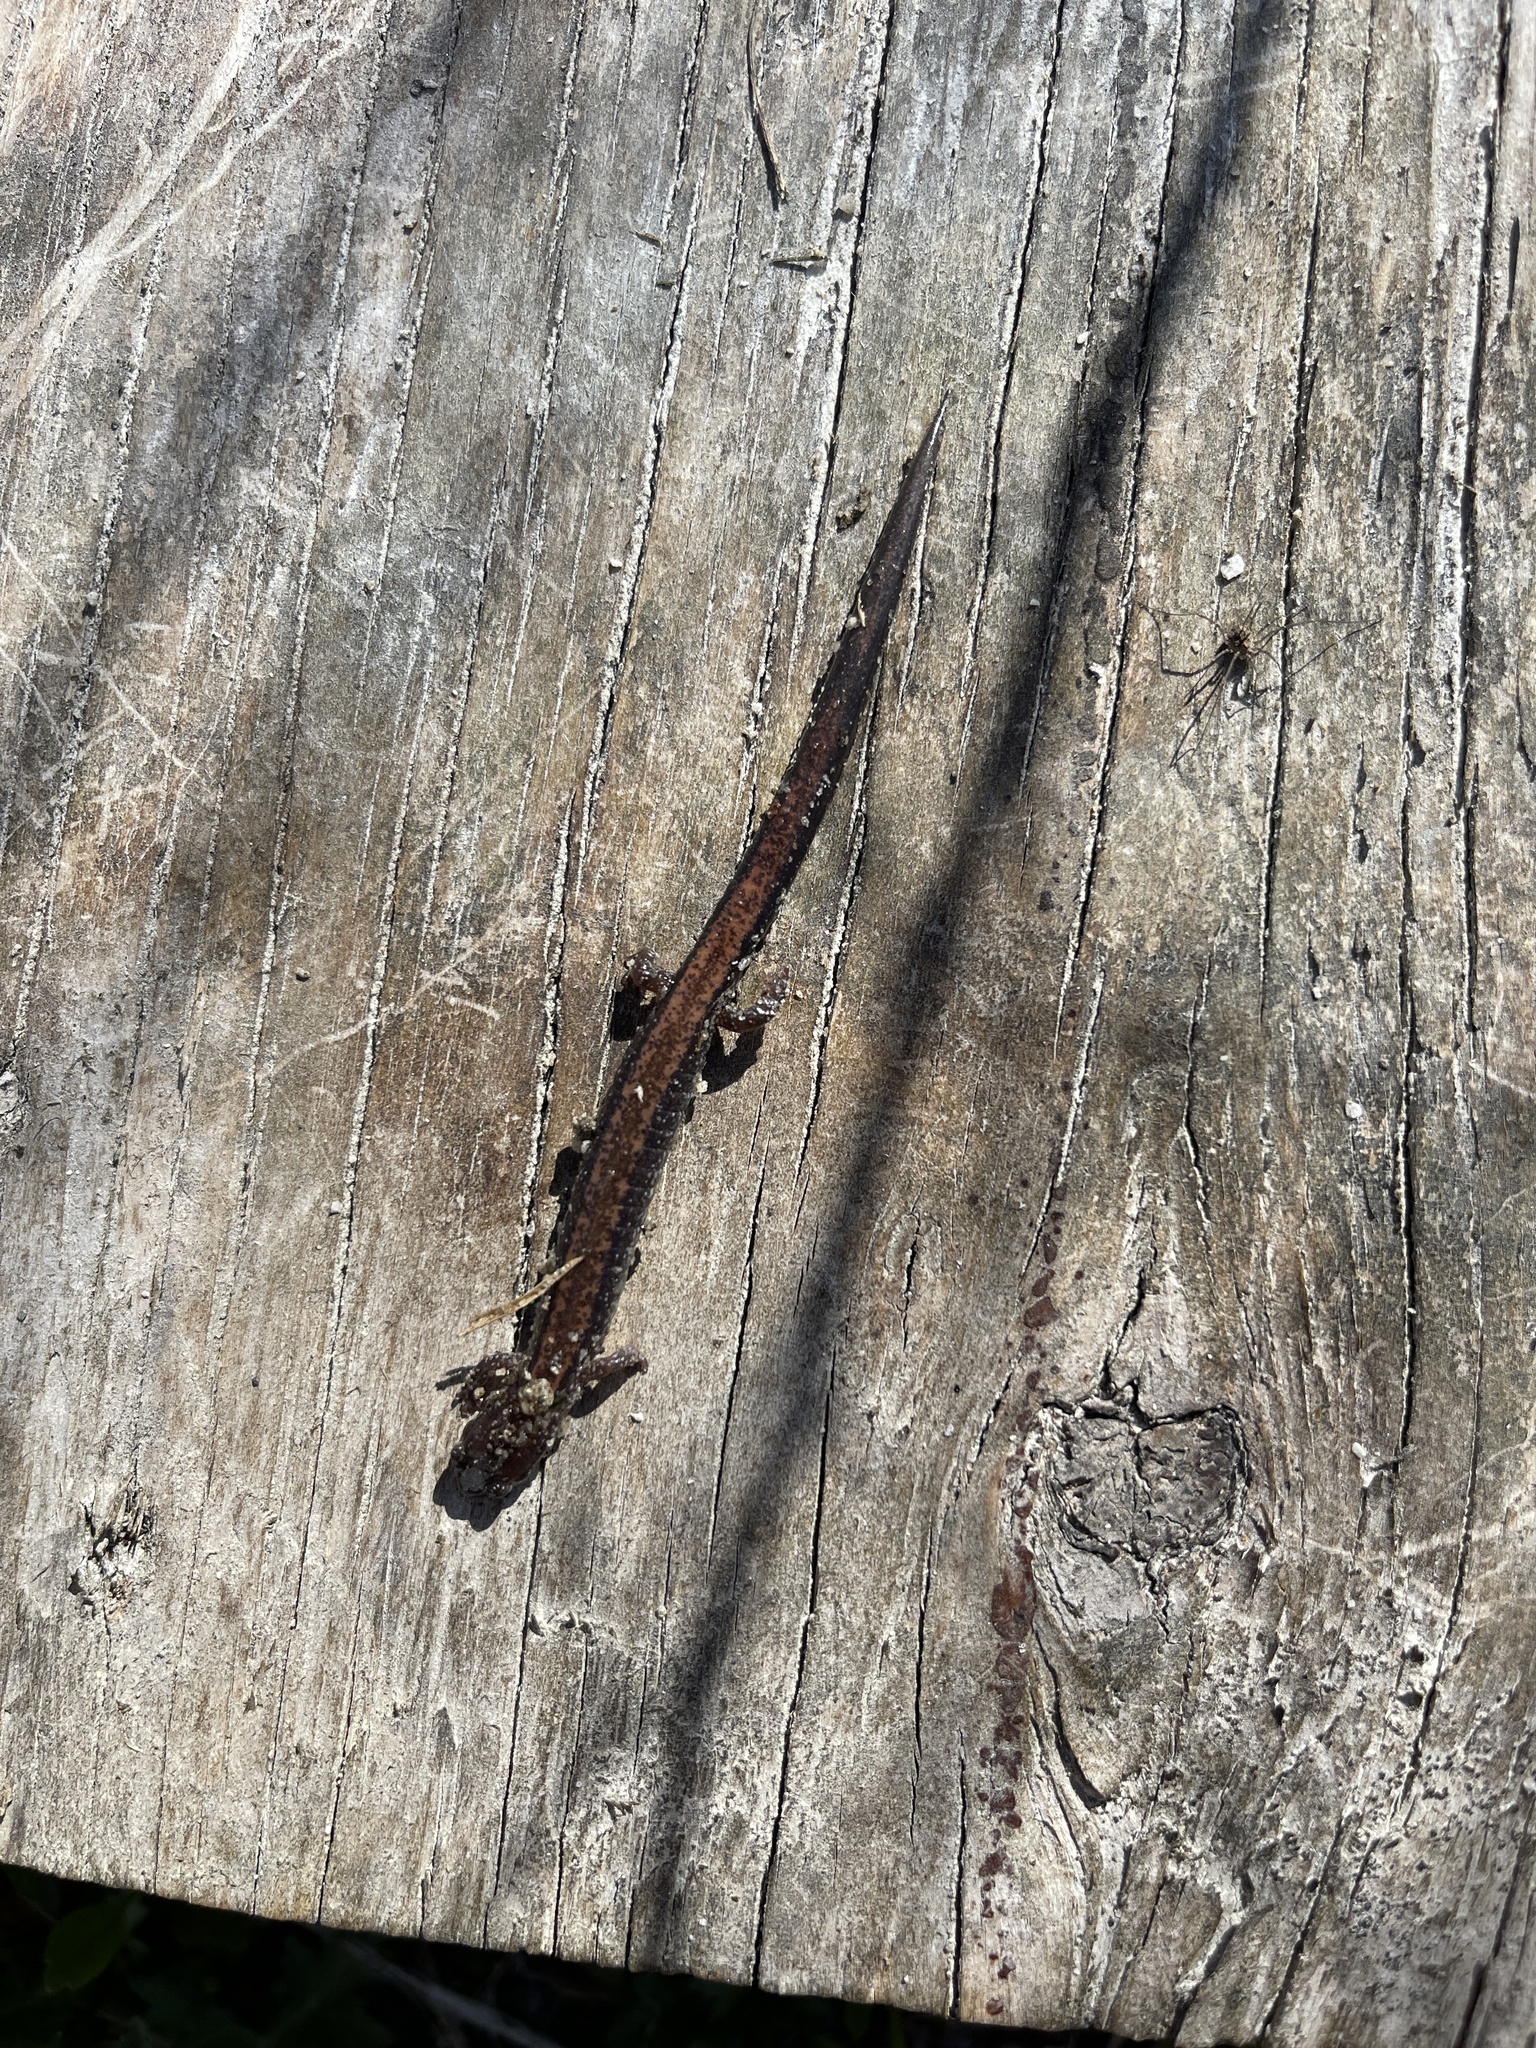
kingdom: Animalia
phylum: Chordata
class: Amphibia
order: Caudata
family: Plethodontidae
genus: Plethodon
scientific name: Plethodon cinereus
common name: Redback salamander
